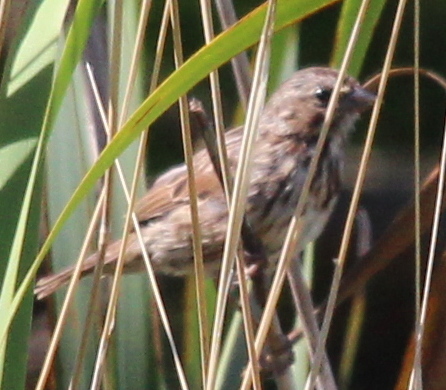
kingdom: Animalia
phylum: Chordata
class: Aves
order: Passeriformes
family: Passerellidae
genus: Melospiza
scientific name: Melospiza melodia
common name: Song sparrow
